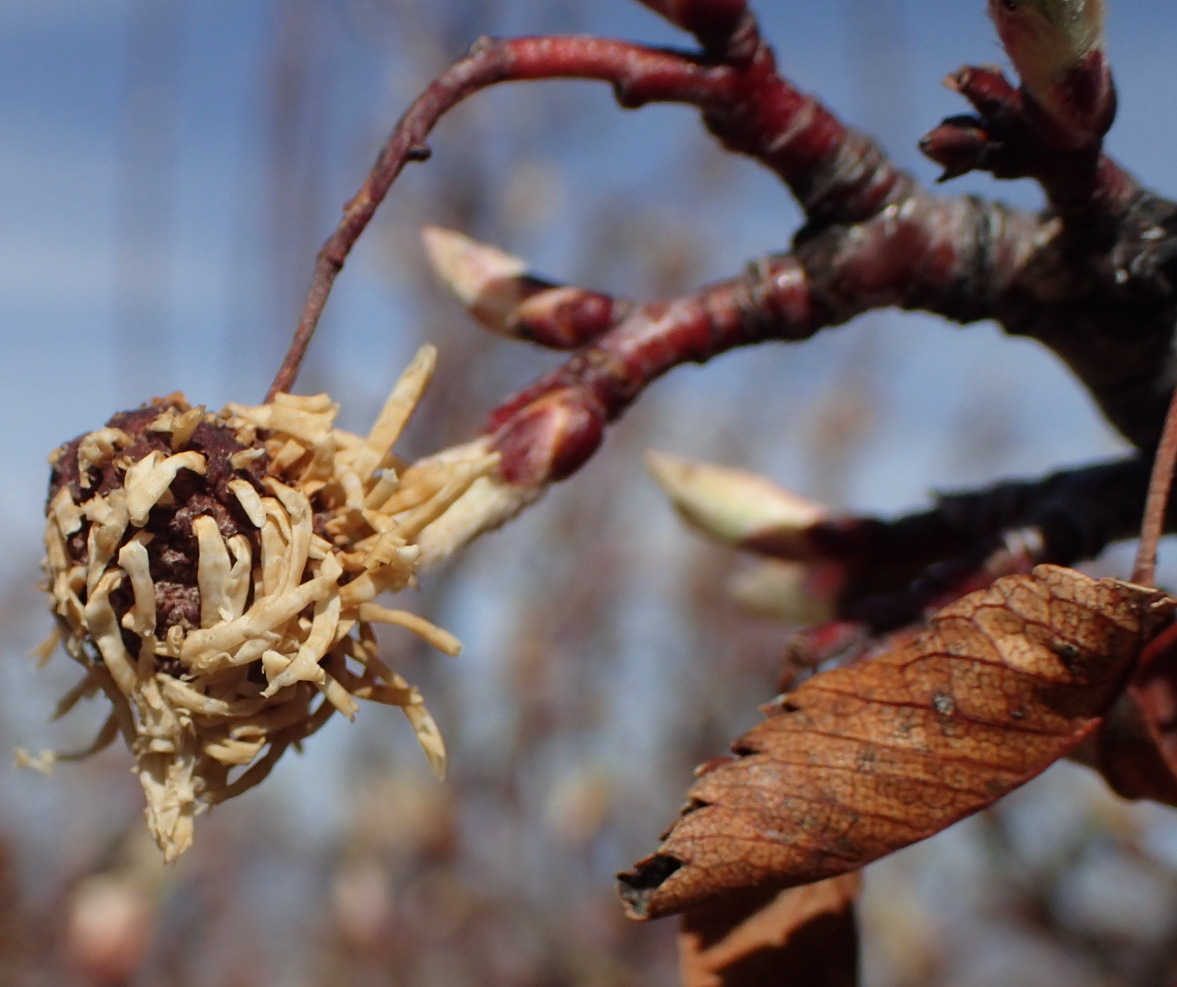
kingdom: Plantae
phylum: Tracheophyta
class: Magnoliopsida
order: Rosales
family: Rosaceae
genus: Amelanchier
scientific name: Amelanchier utahensis
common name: Utah serviceberry
